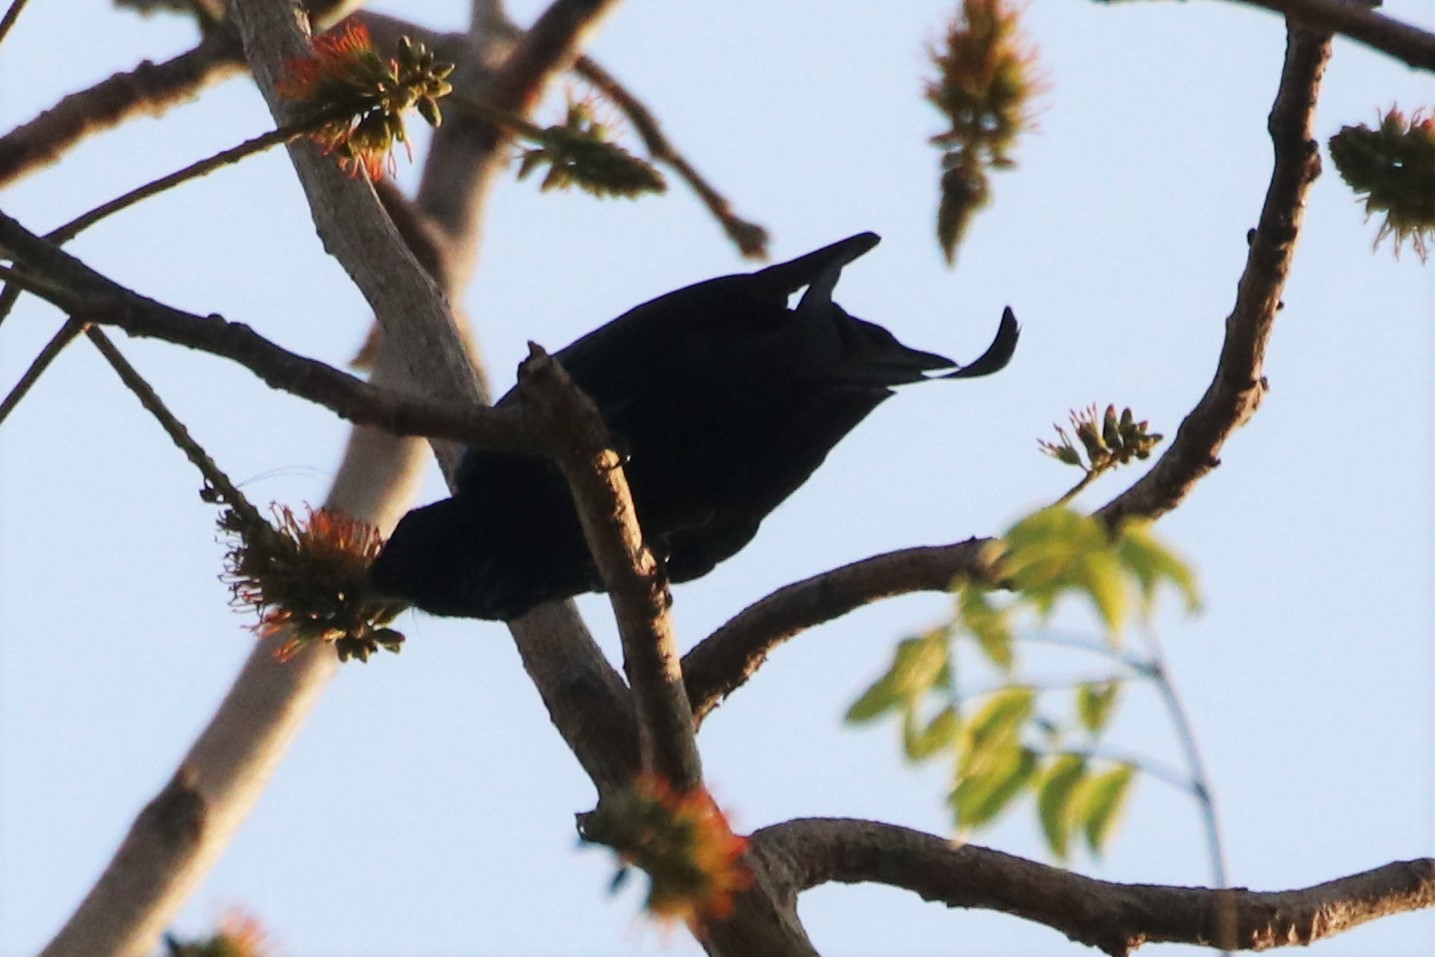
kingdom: Animalia
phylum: Chordata
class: Aves
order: Passeriformes
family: Dicruridae
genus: Dicrurus
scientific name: Dicrurus hottentottus
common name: Hair-crested drongo
